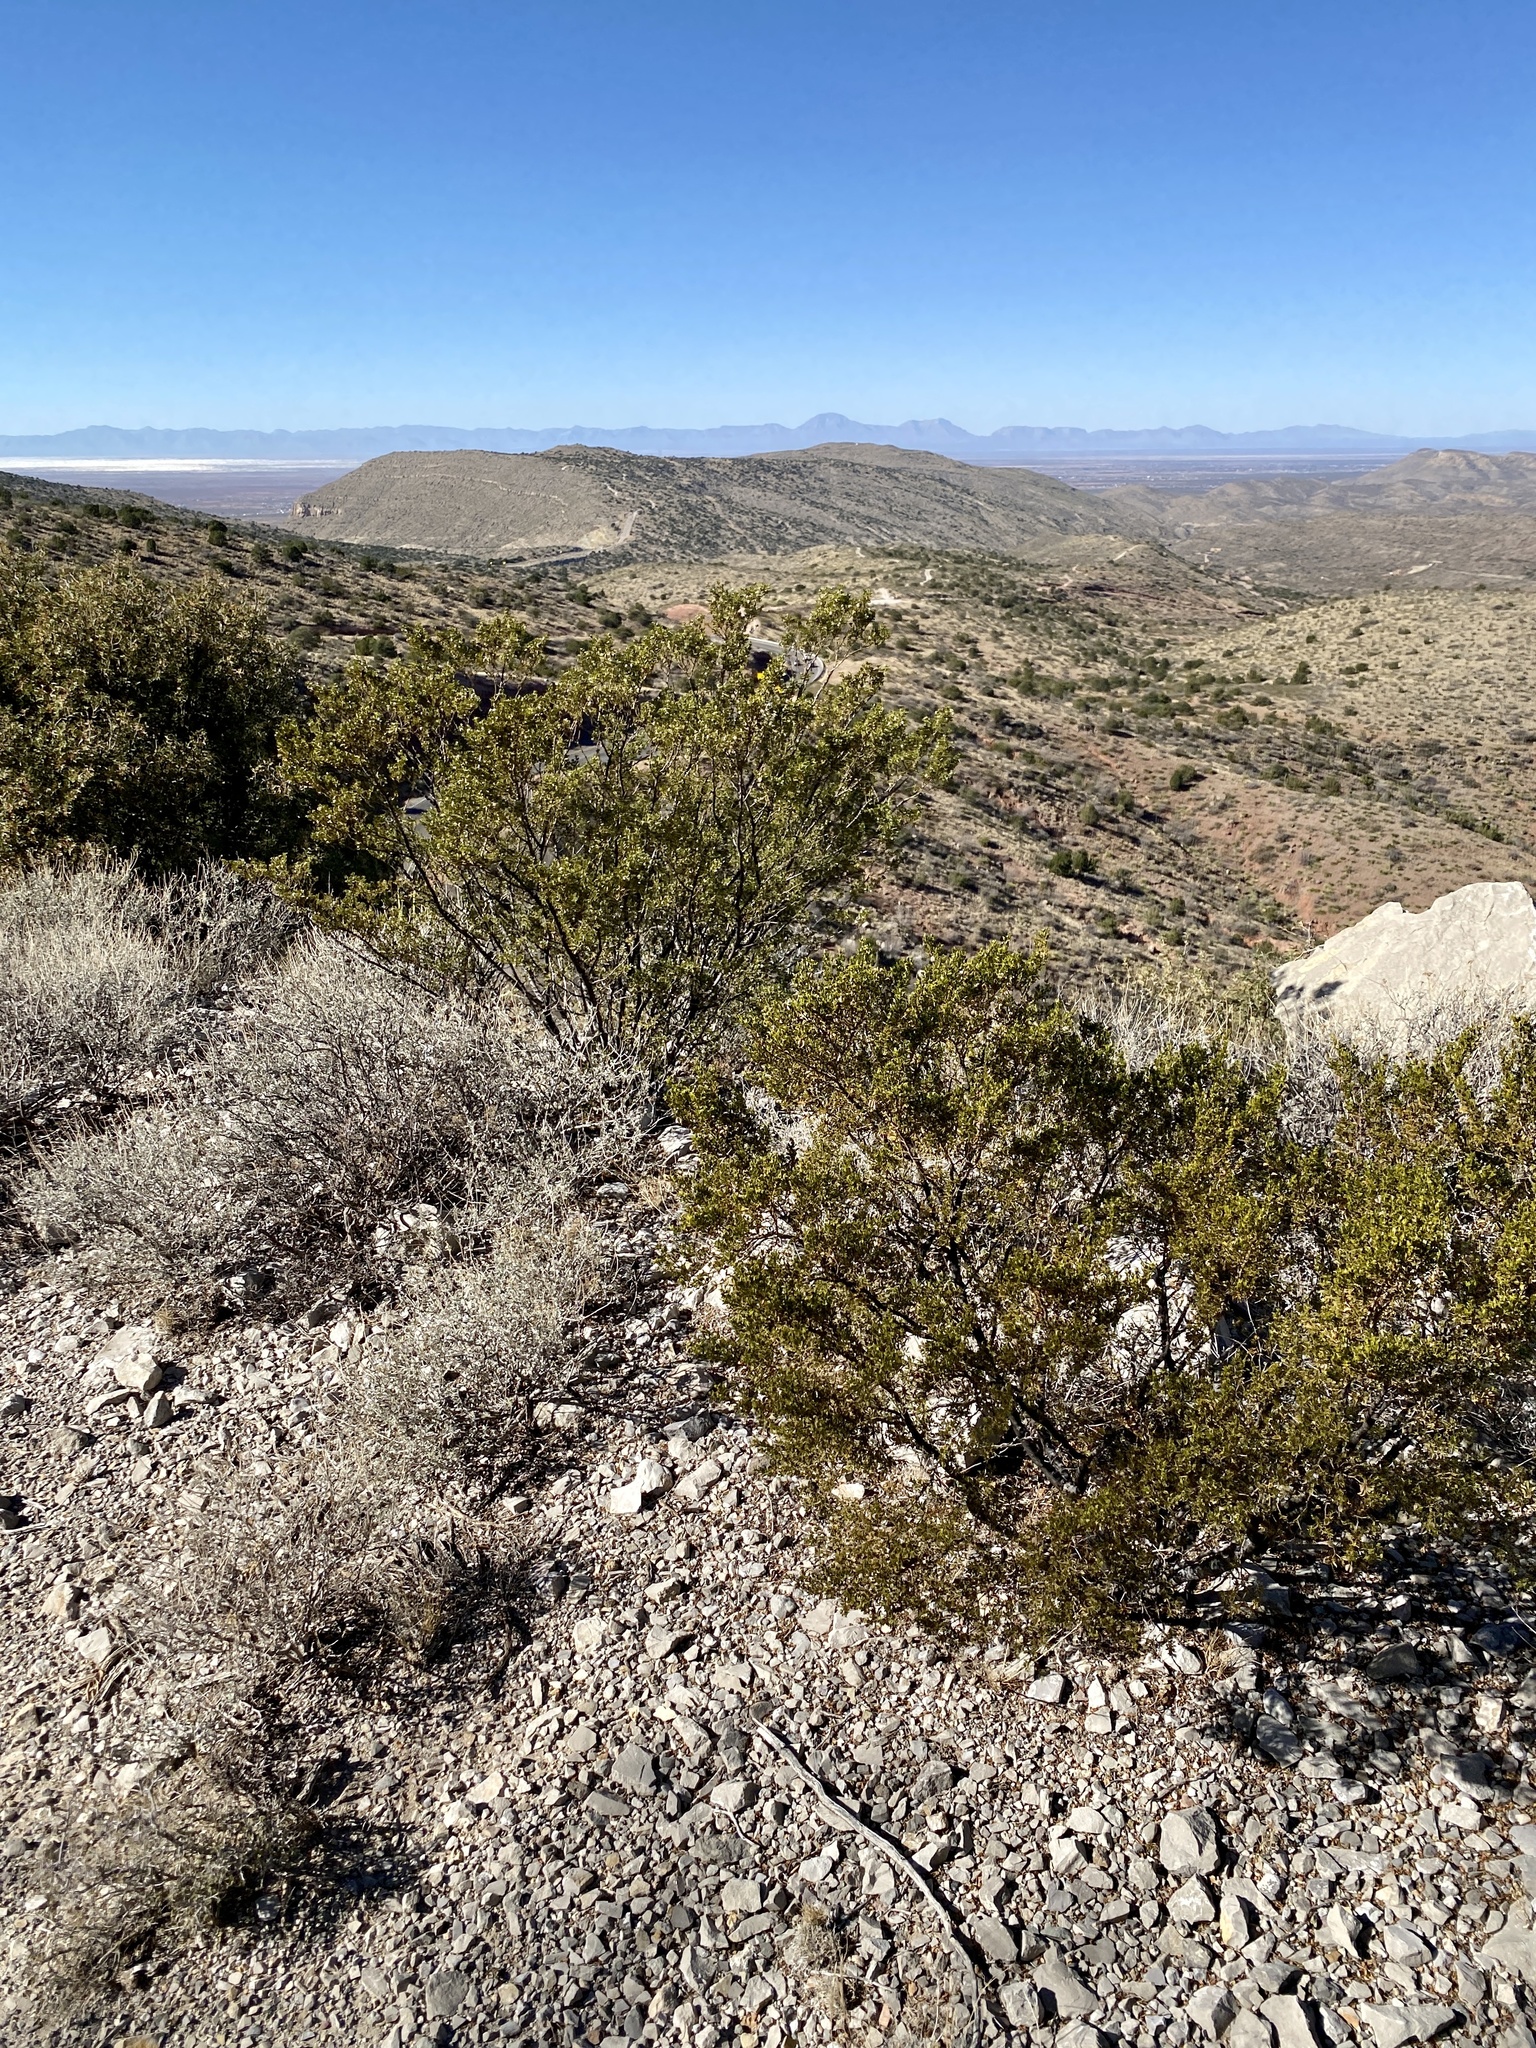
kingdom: Plantae
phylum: Tracheophyta
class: Magnoliopsida
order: Zygophyllales
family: Zygophyllaceae
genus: Larrea
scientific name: Larrea tridentata
